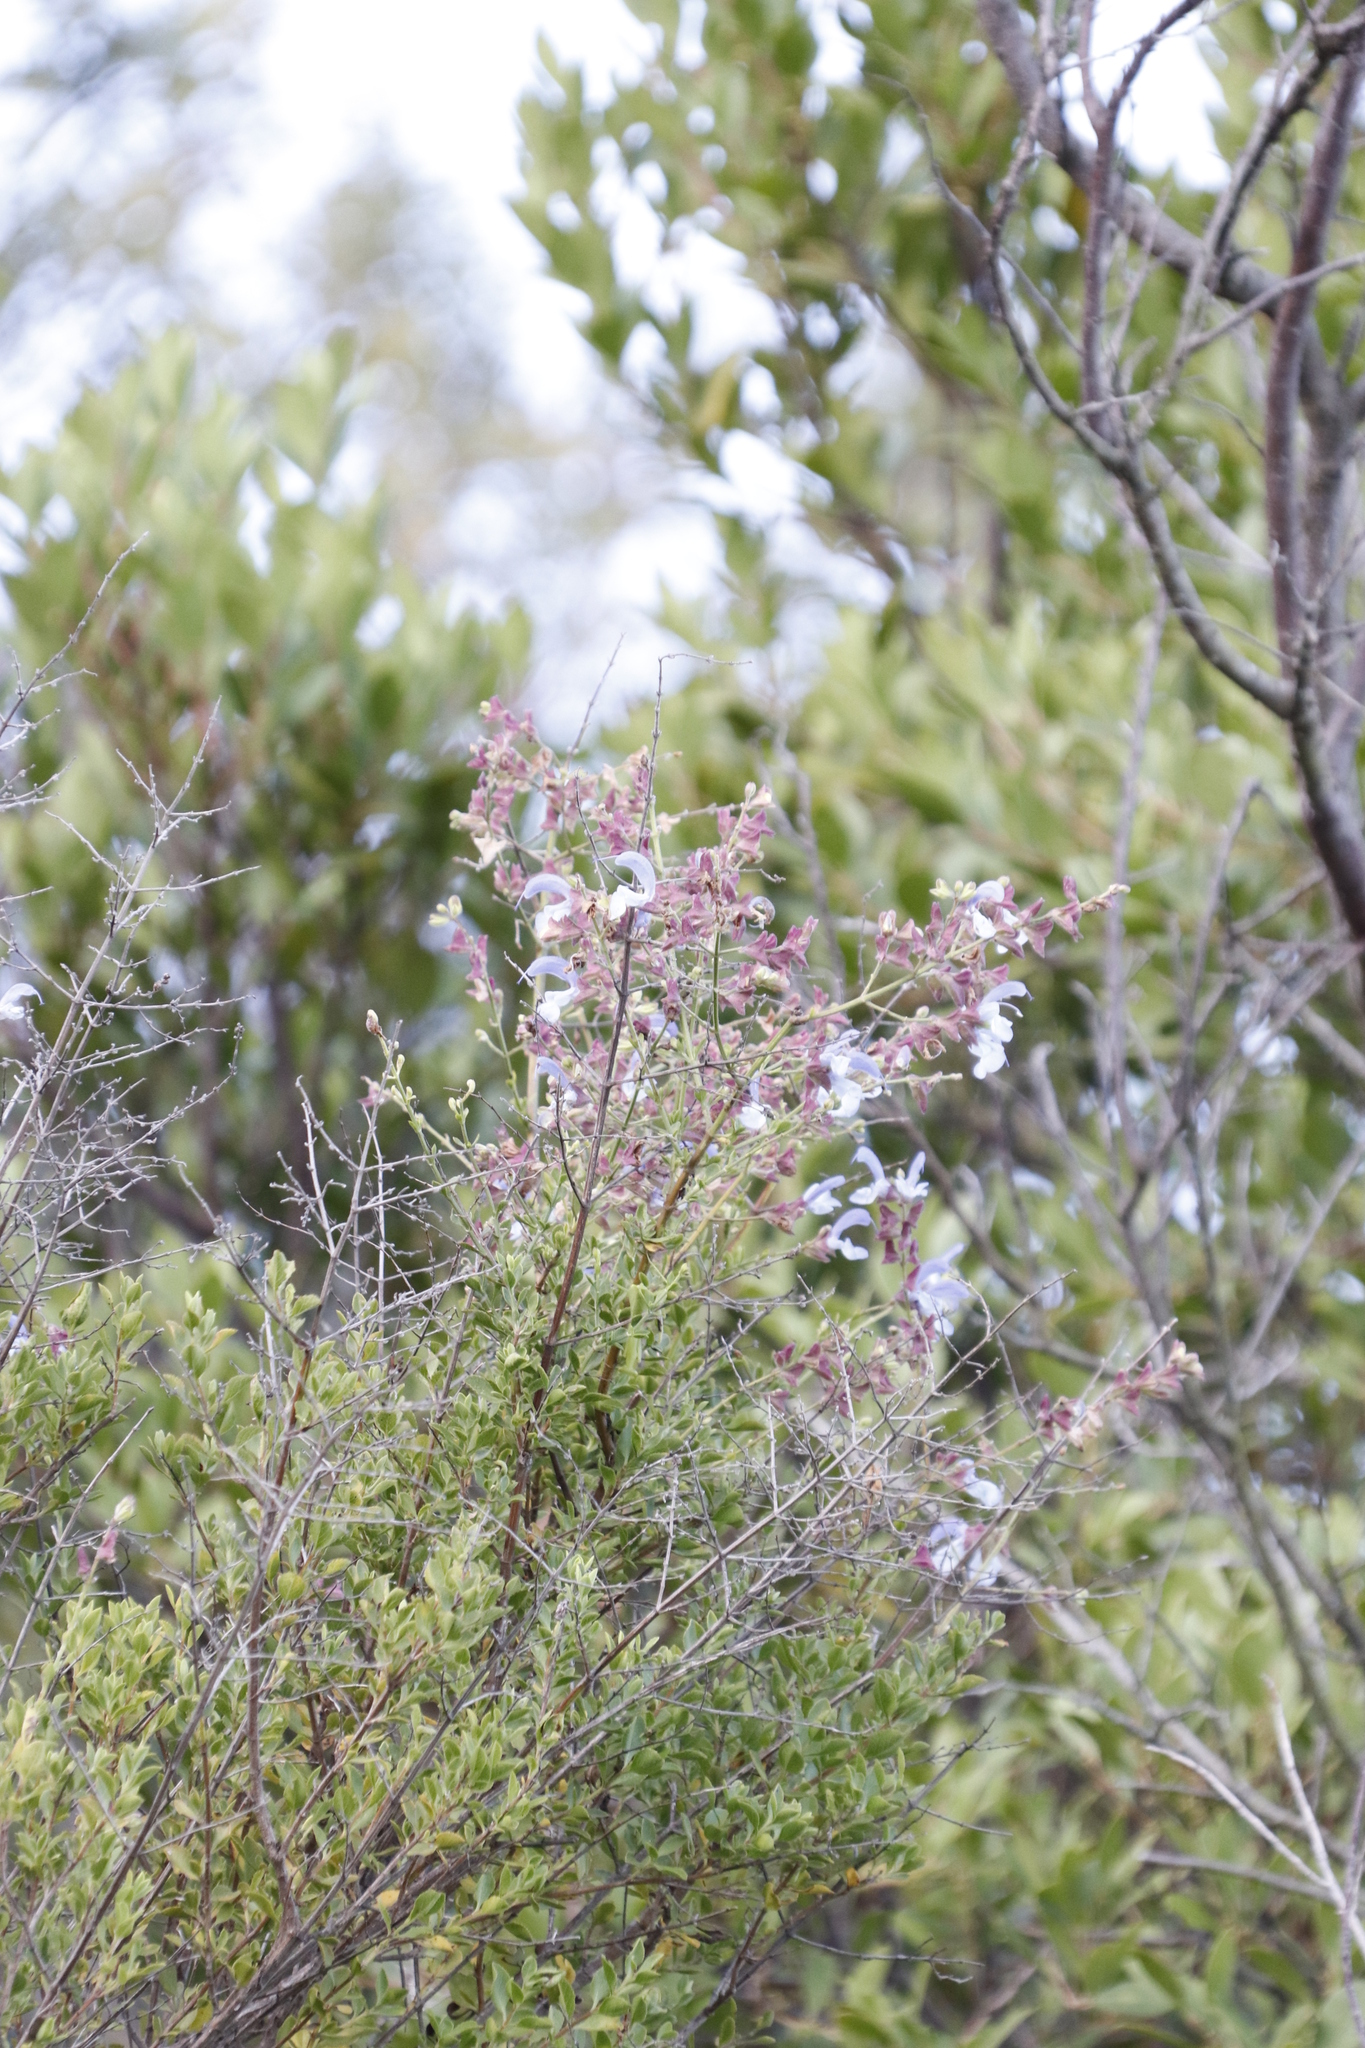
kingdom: Plantae
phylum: Tracheophyta
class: Magnoliopsida
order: Lamiales
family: Lamiaceae
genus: Salvia
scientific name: Salvia chamelaeagnea
